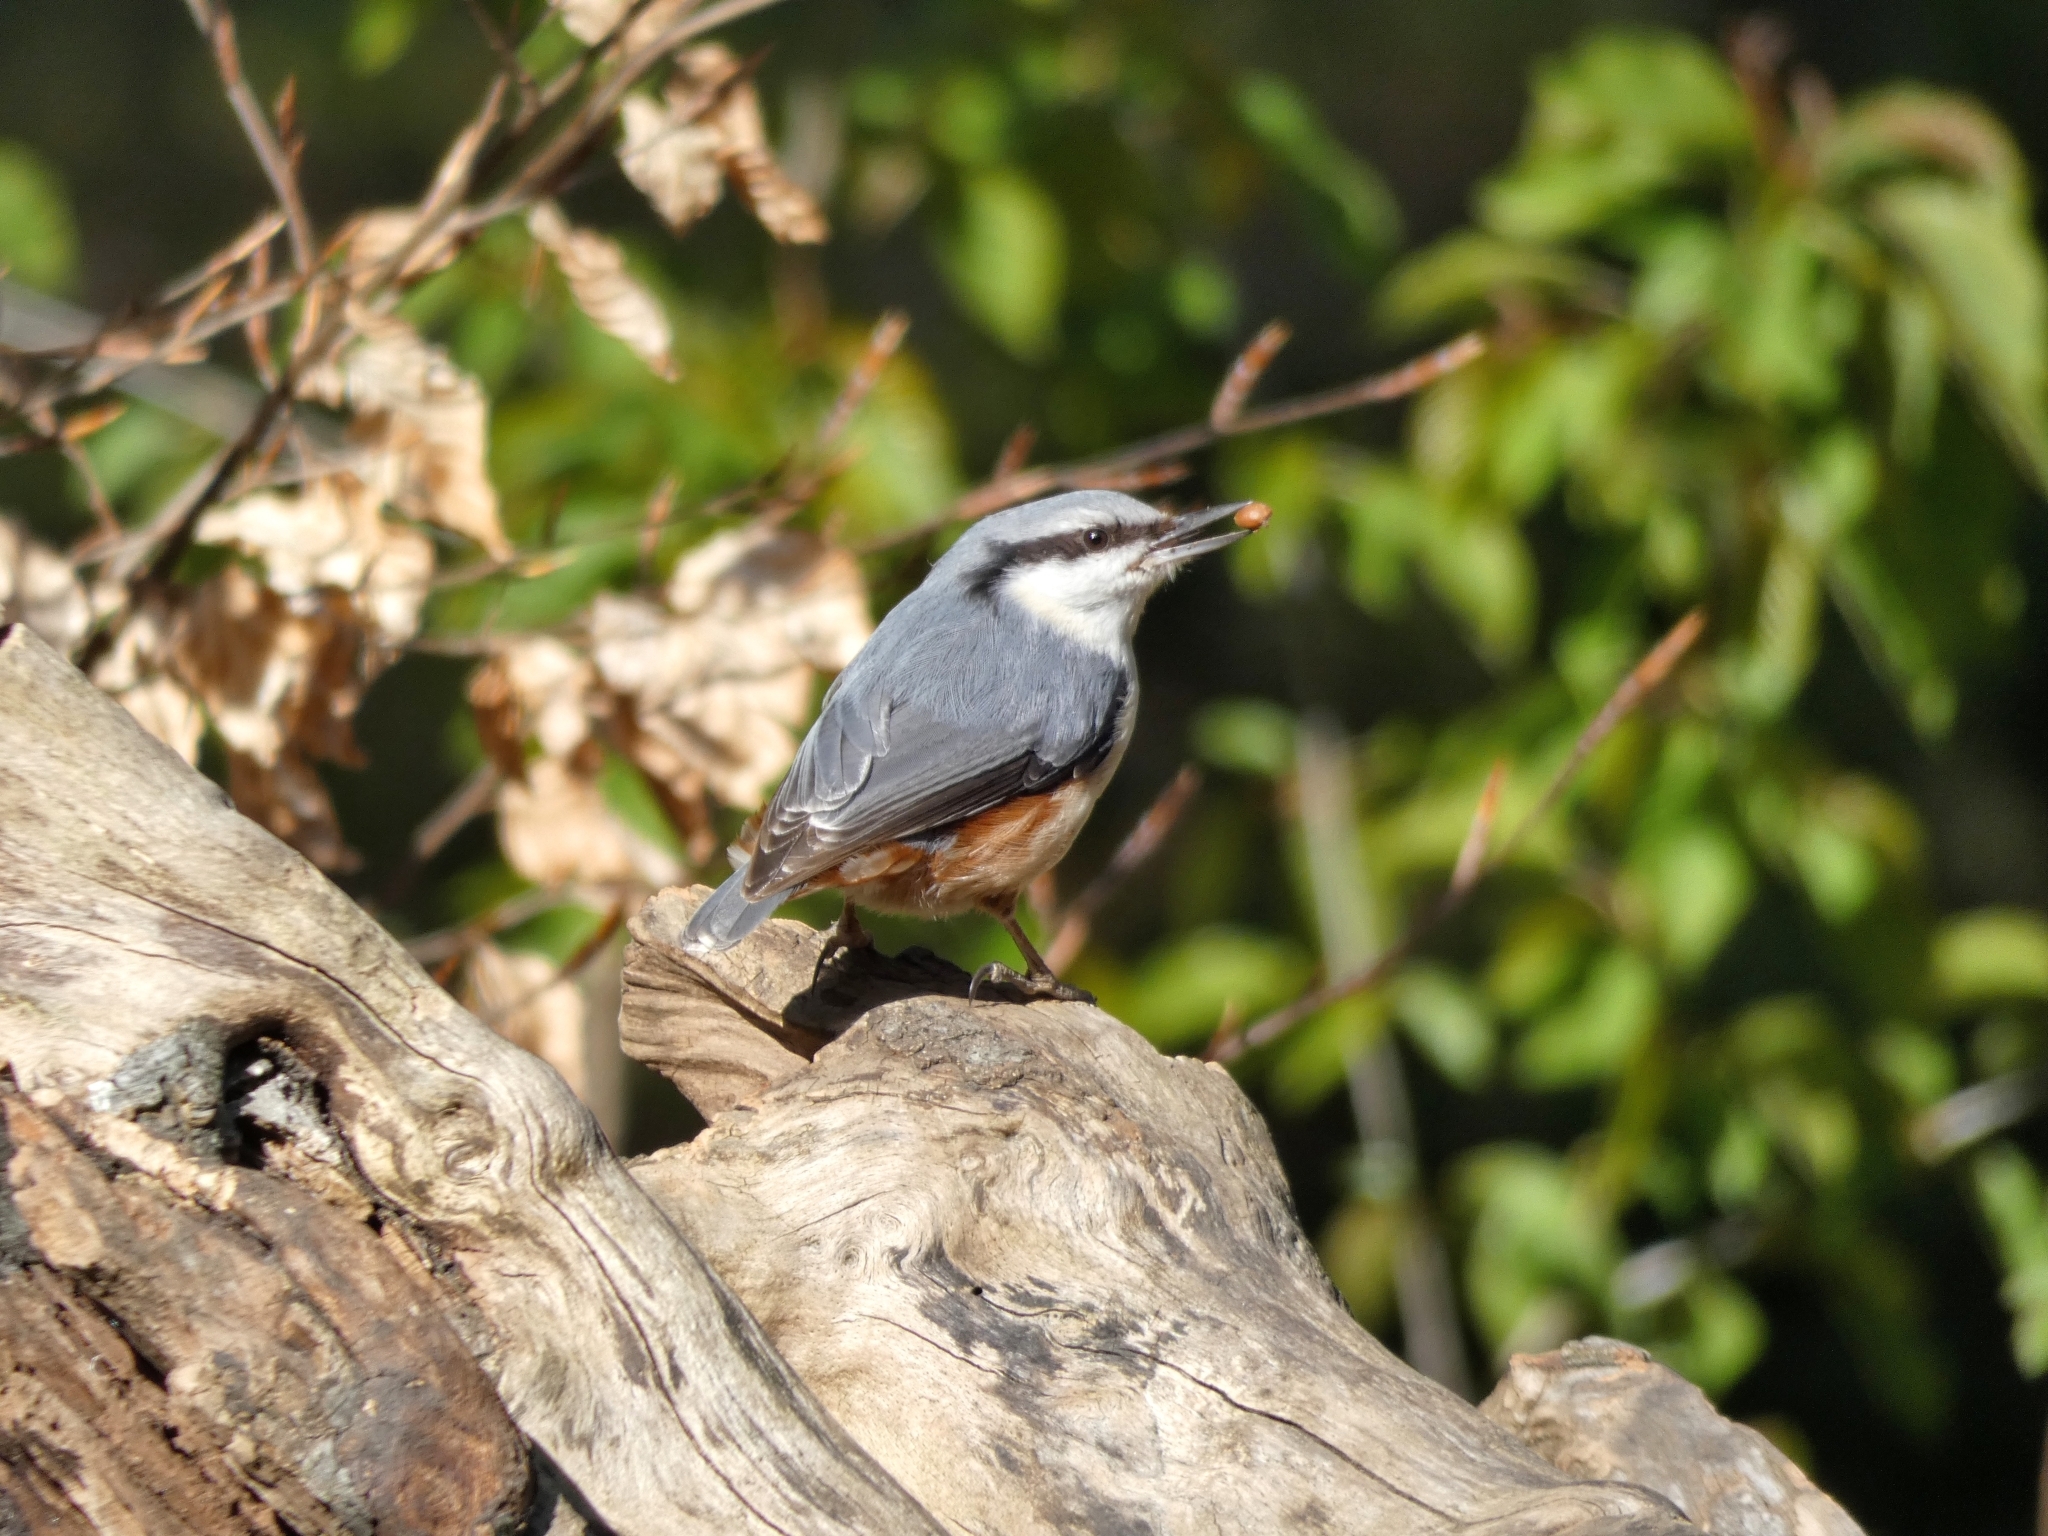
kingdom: Animalia
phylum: Chordata
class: Aves
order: Passeriformes
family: Sittidae
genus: Sitta
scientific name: Sitta europaea
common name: Eurasian nuthatch
